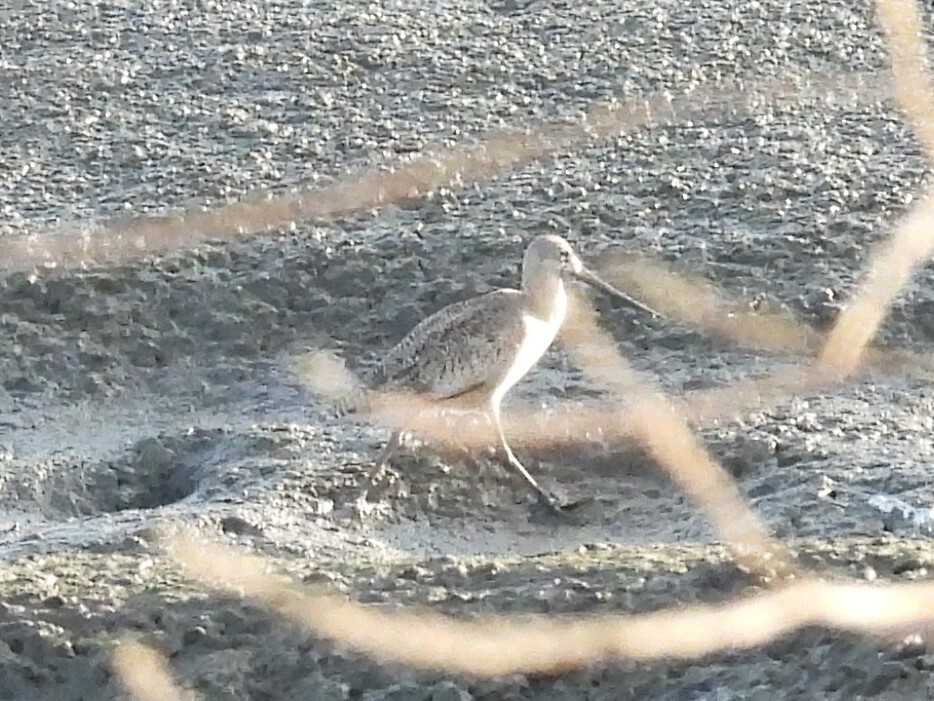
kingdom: Animalia
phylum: Chordata
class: Aves
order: Charadriiformes
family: Scolopacidae
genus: Limosa
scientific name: Limosa fedoa
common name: Marbled godwit
